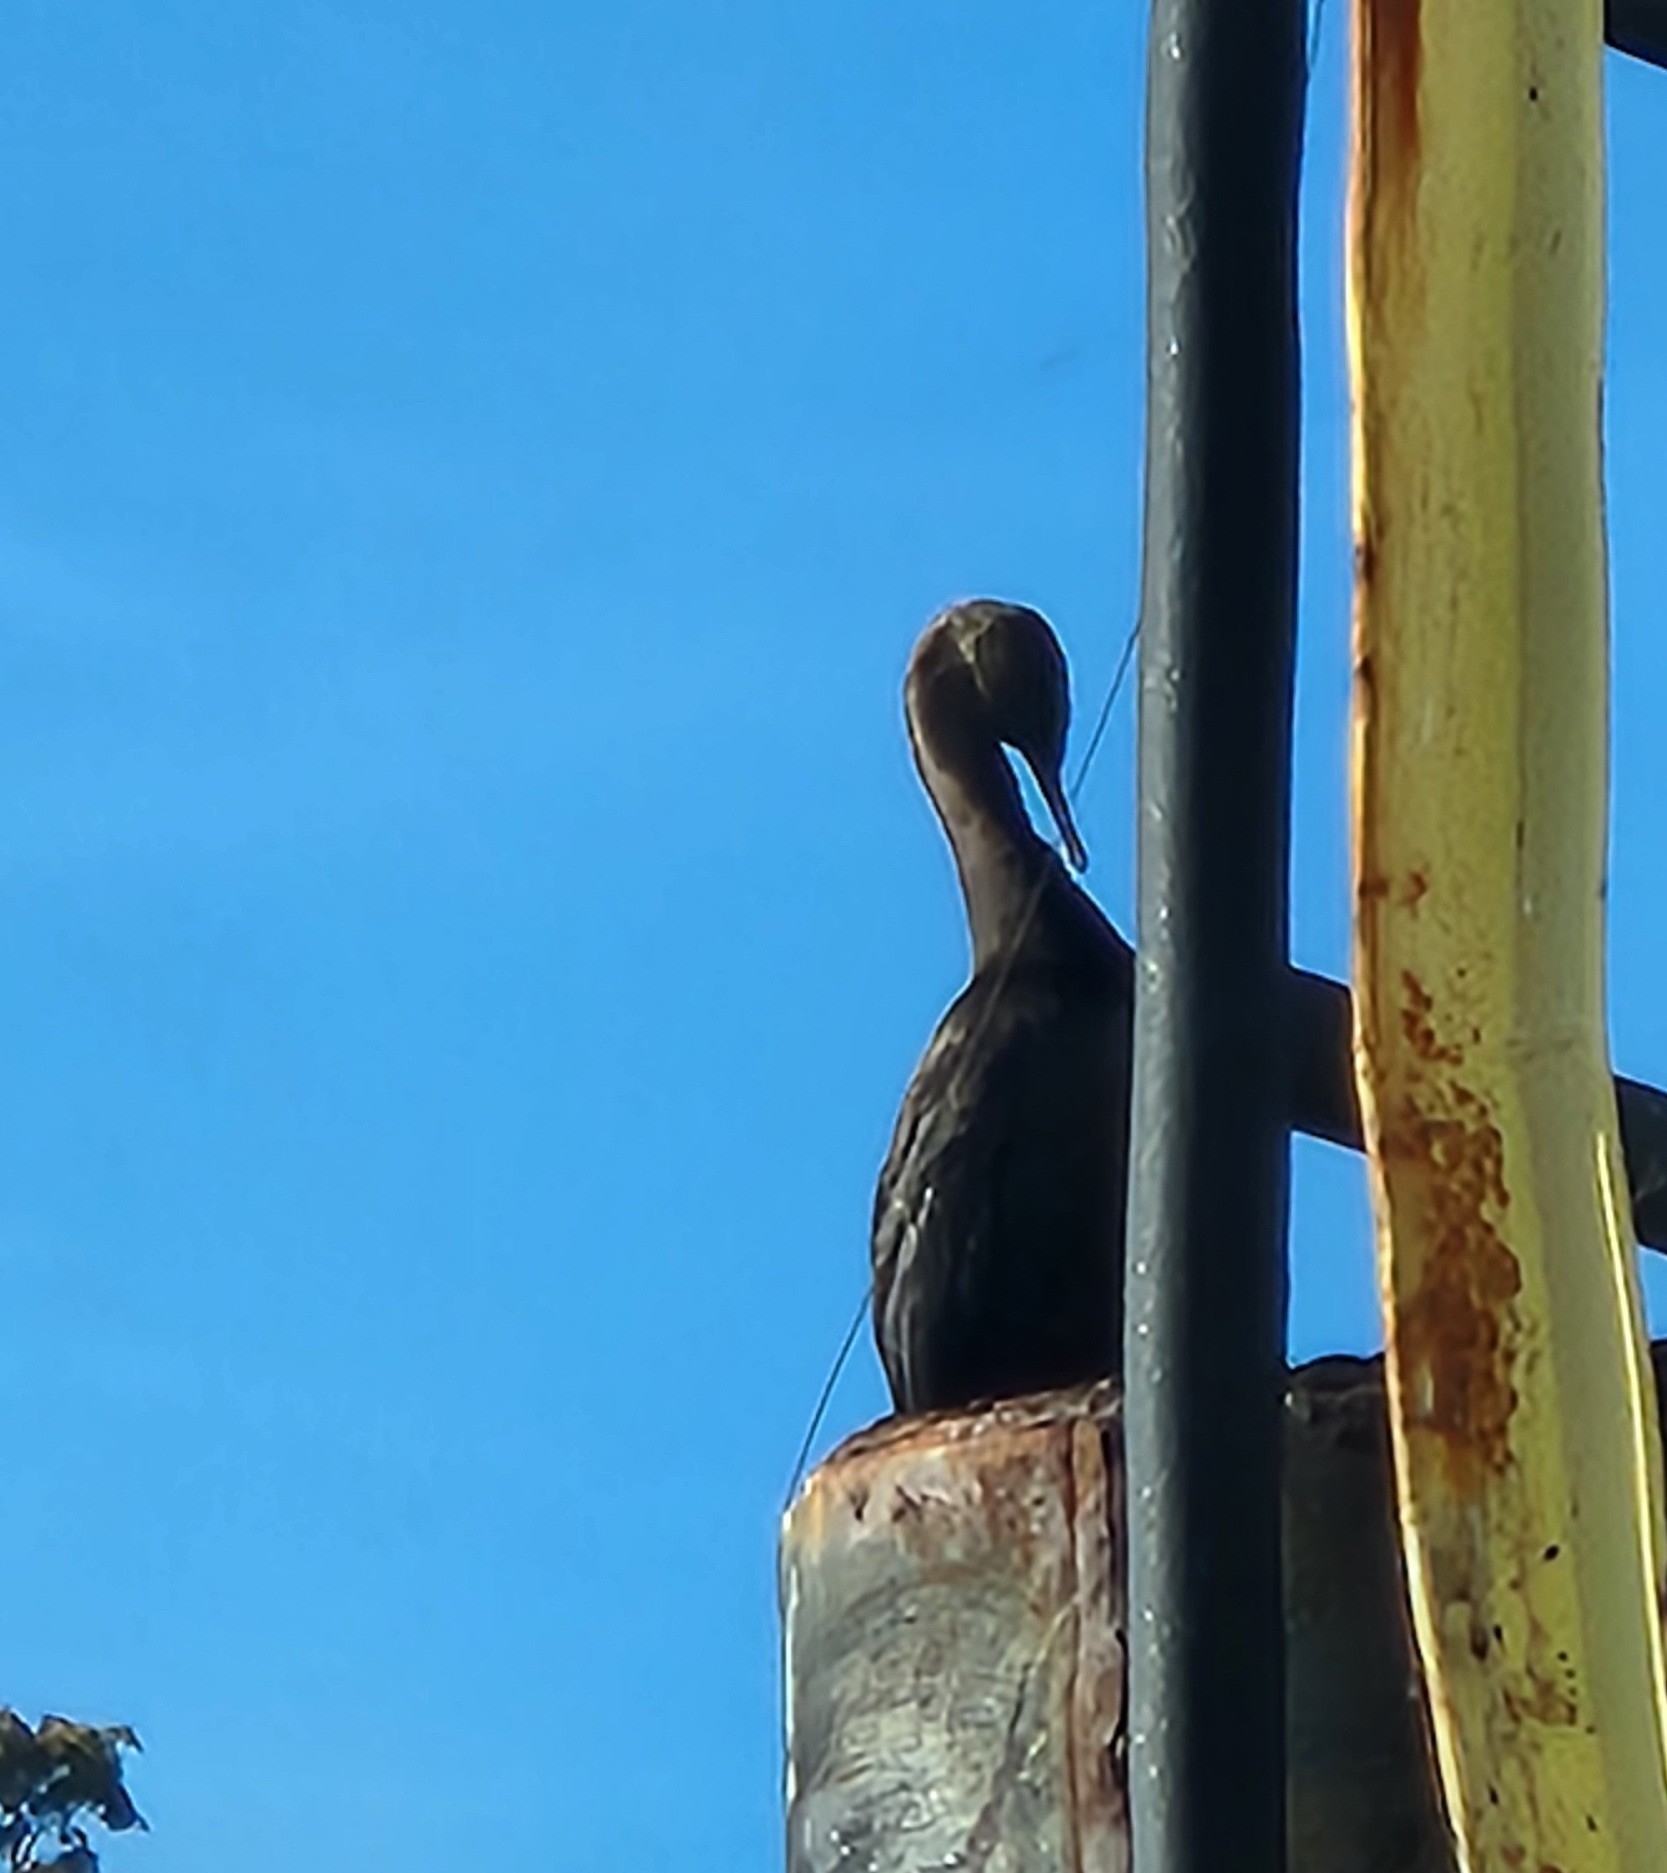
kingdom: Animalia
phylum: Chordata
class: Aves
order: Suliformes
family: Phalacrocoracidae
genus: Phalacrocorax
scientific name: Phalacrocorax pelagicus
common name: Pelagic cormorant
